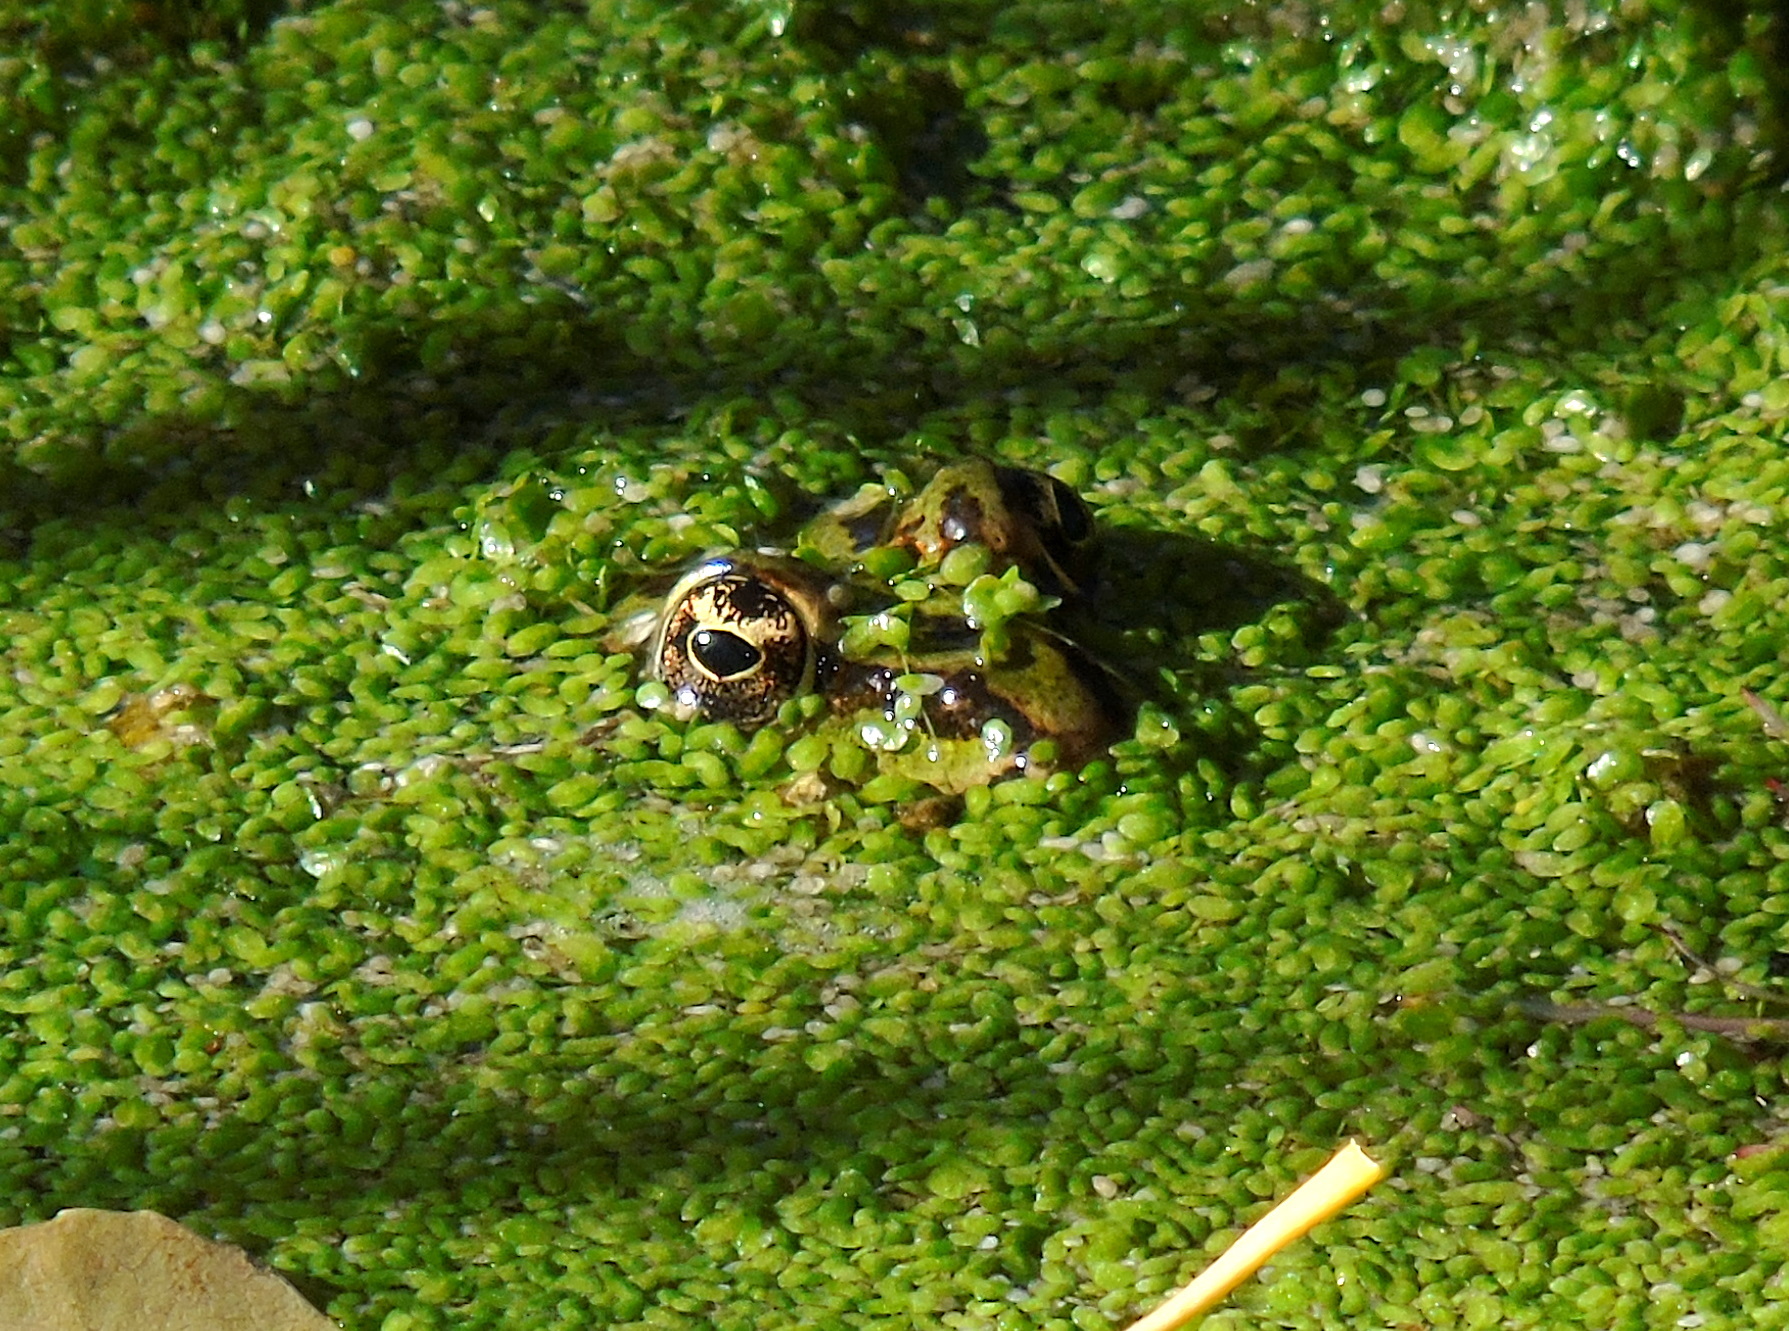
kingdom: Animalia
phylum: Chordata
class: Amphibia
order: Anura
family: Ranidae
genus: Pelophylax
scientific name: Pelophylax ridibundus
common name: Marsh frog
